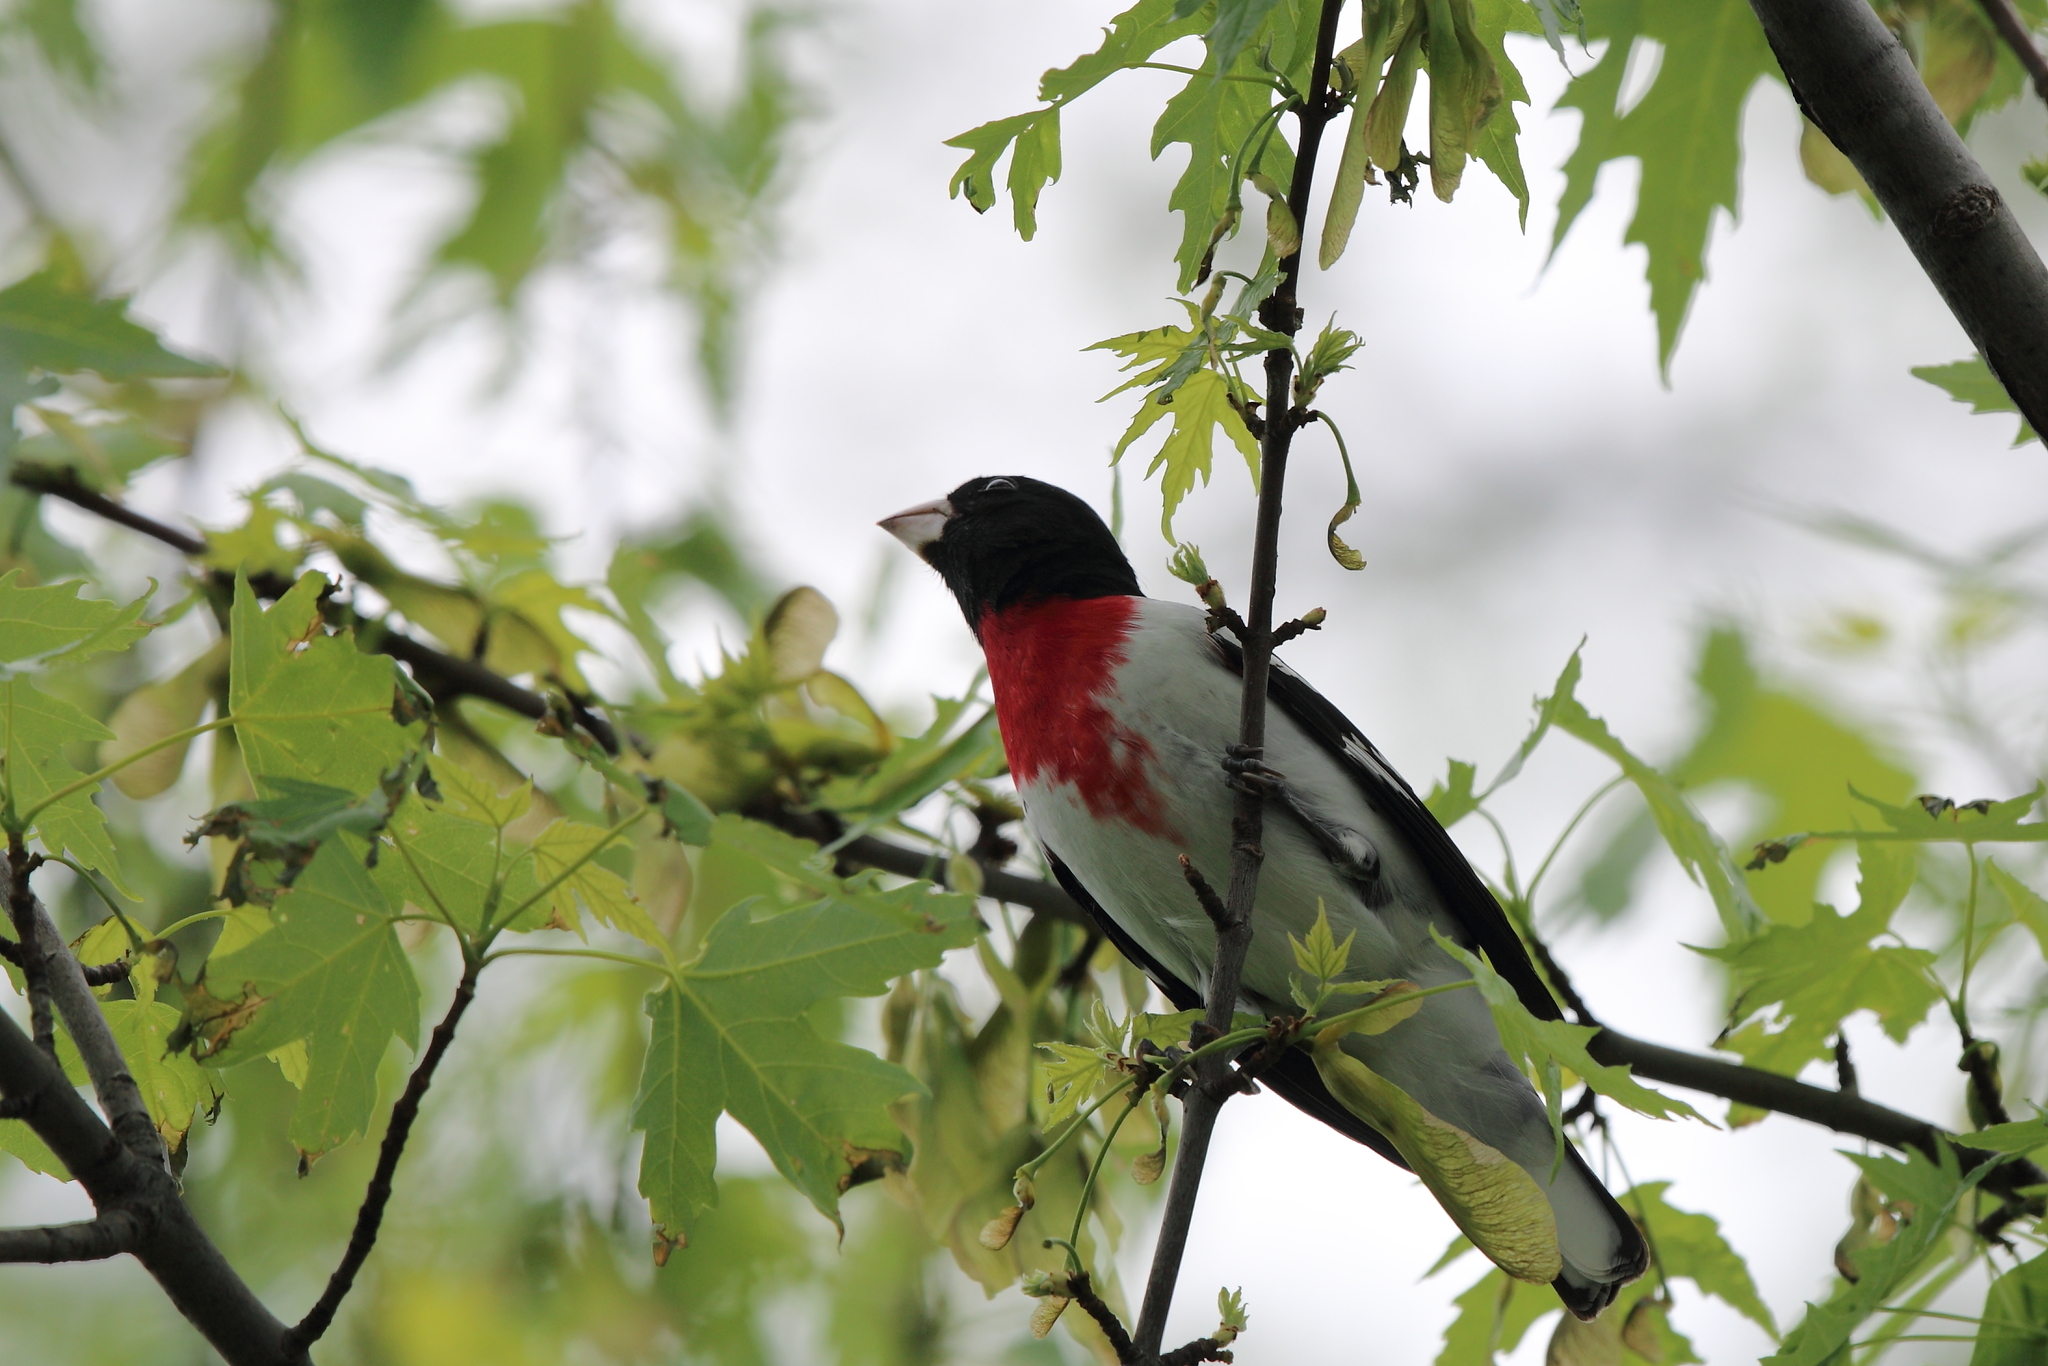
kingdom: Animalia
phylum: Chordata
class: Aves
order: Passeriformes
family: Cardinalidae
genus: Pheucticus
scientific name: Pheucticus ludovicianus
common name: Rose-breasted grosbeak
